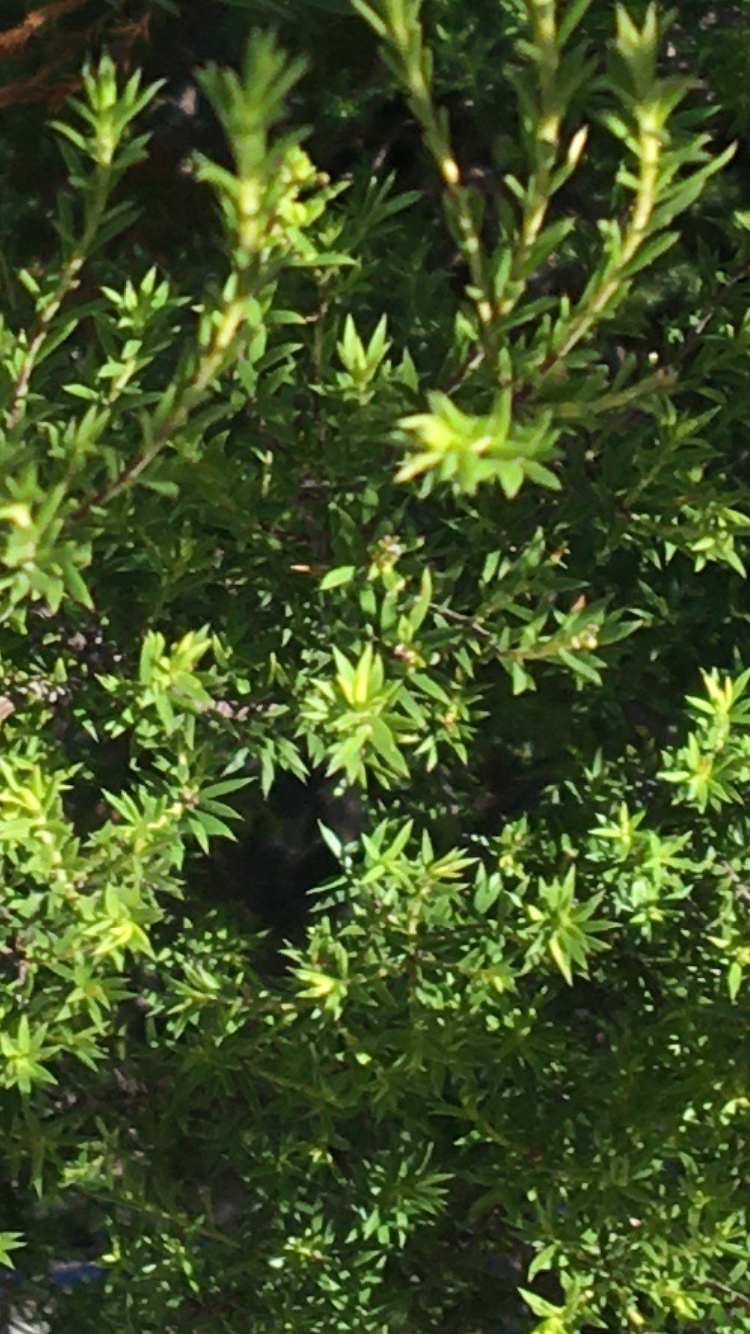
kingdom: Plantae
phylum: Tracheophyta
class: Magnoliopsida
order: Sapindales
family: Rutaceae
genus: Coleonema
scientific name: Coleonema album
